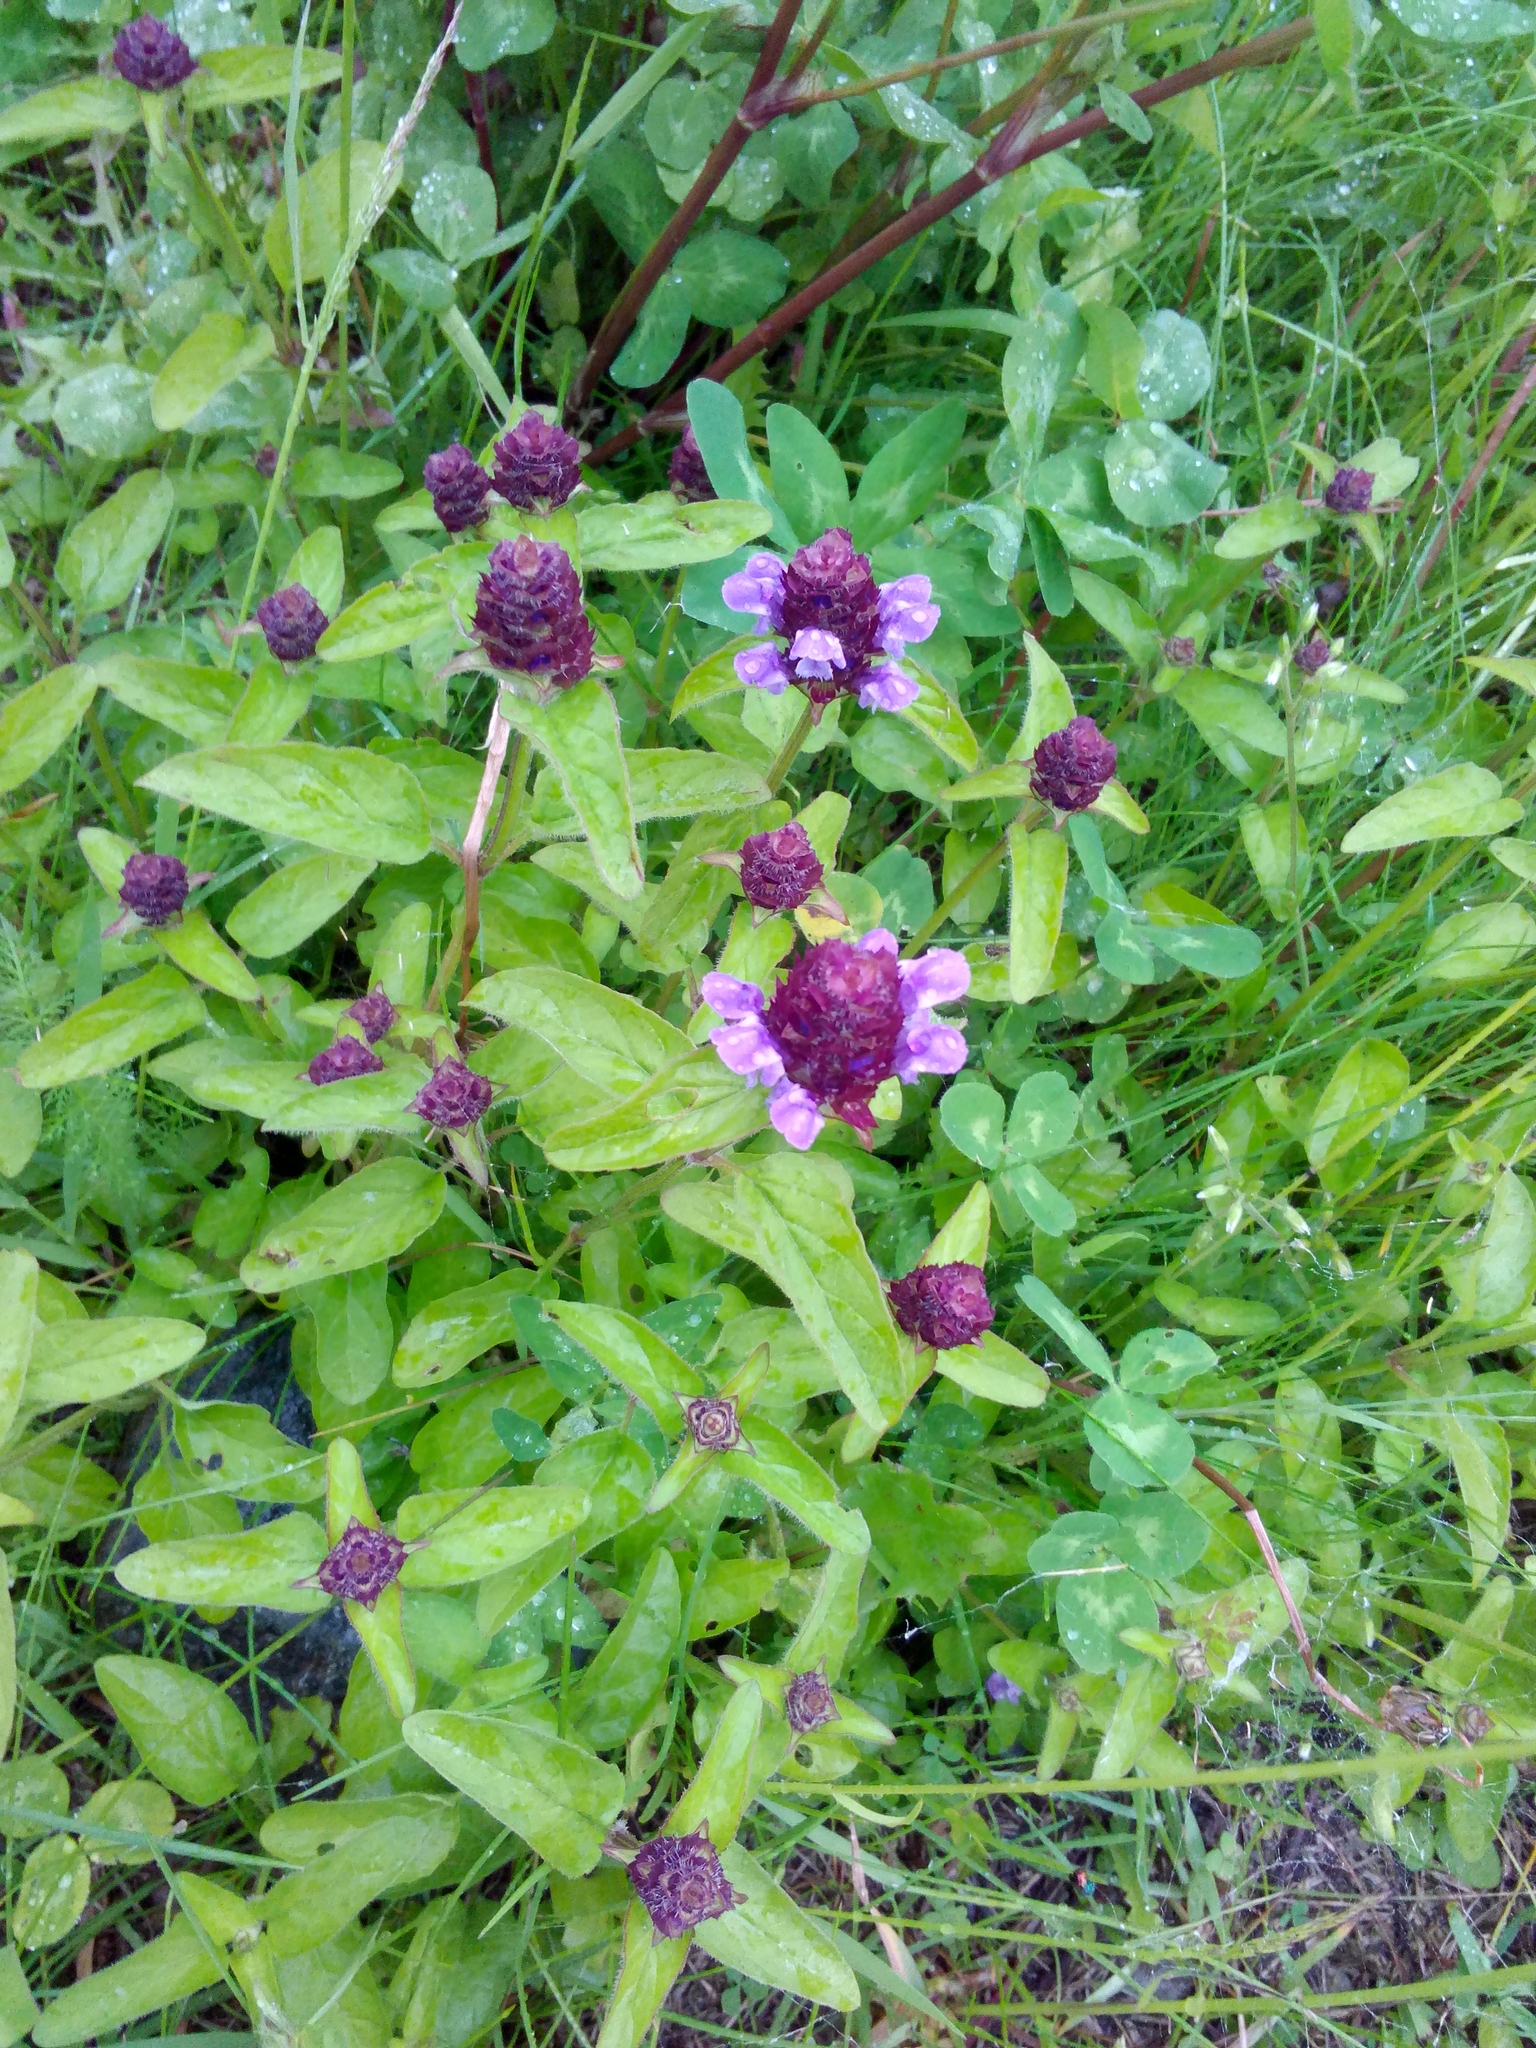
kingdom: Plantae
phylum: Tracheophyta
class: Magnoliopsida
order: Lamiales
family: Lamiaceae
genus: Prunella
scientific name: Prunella vulgaris
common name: Heal-all
